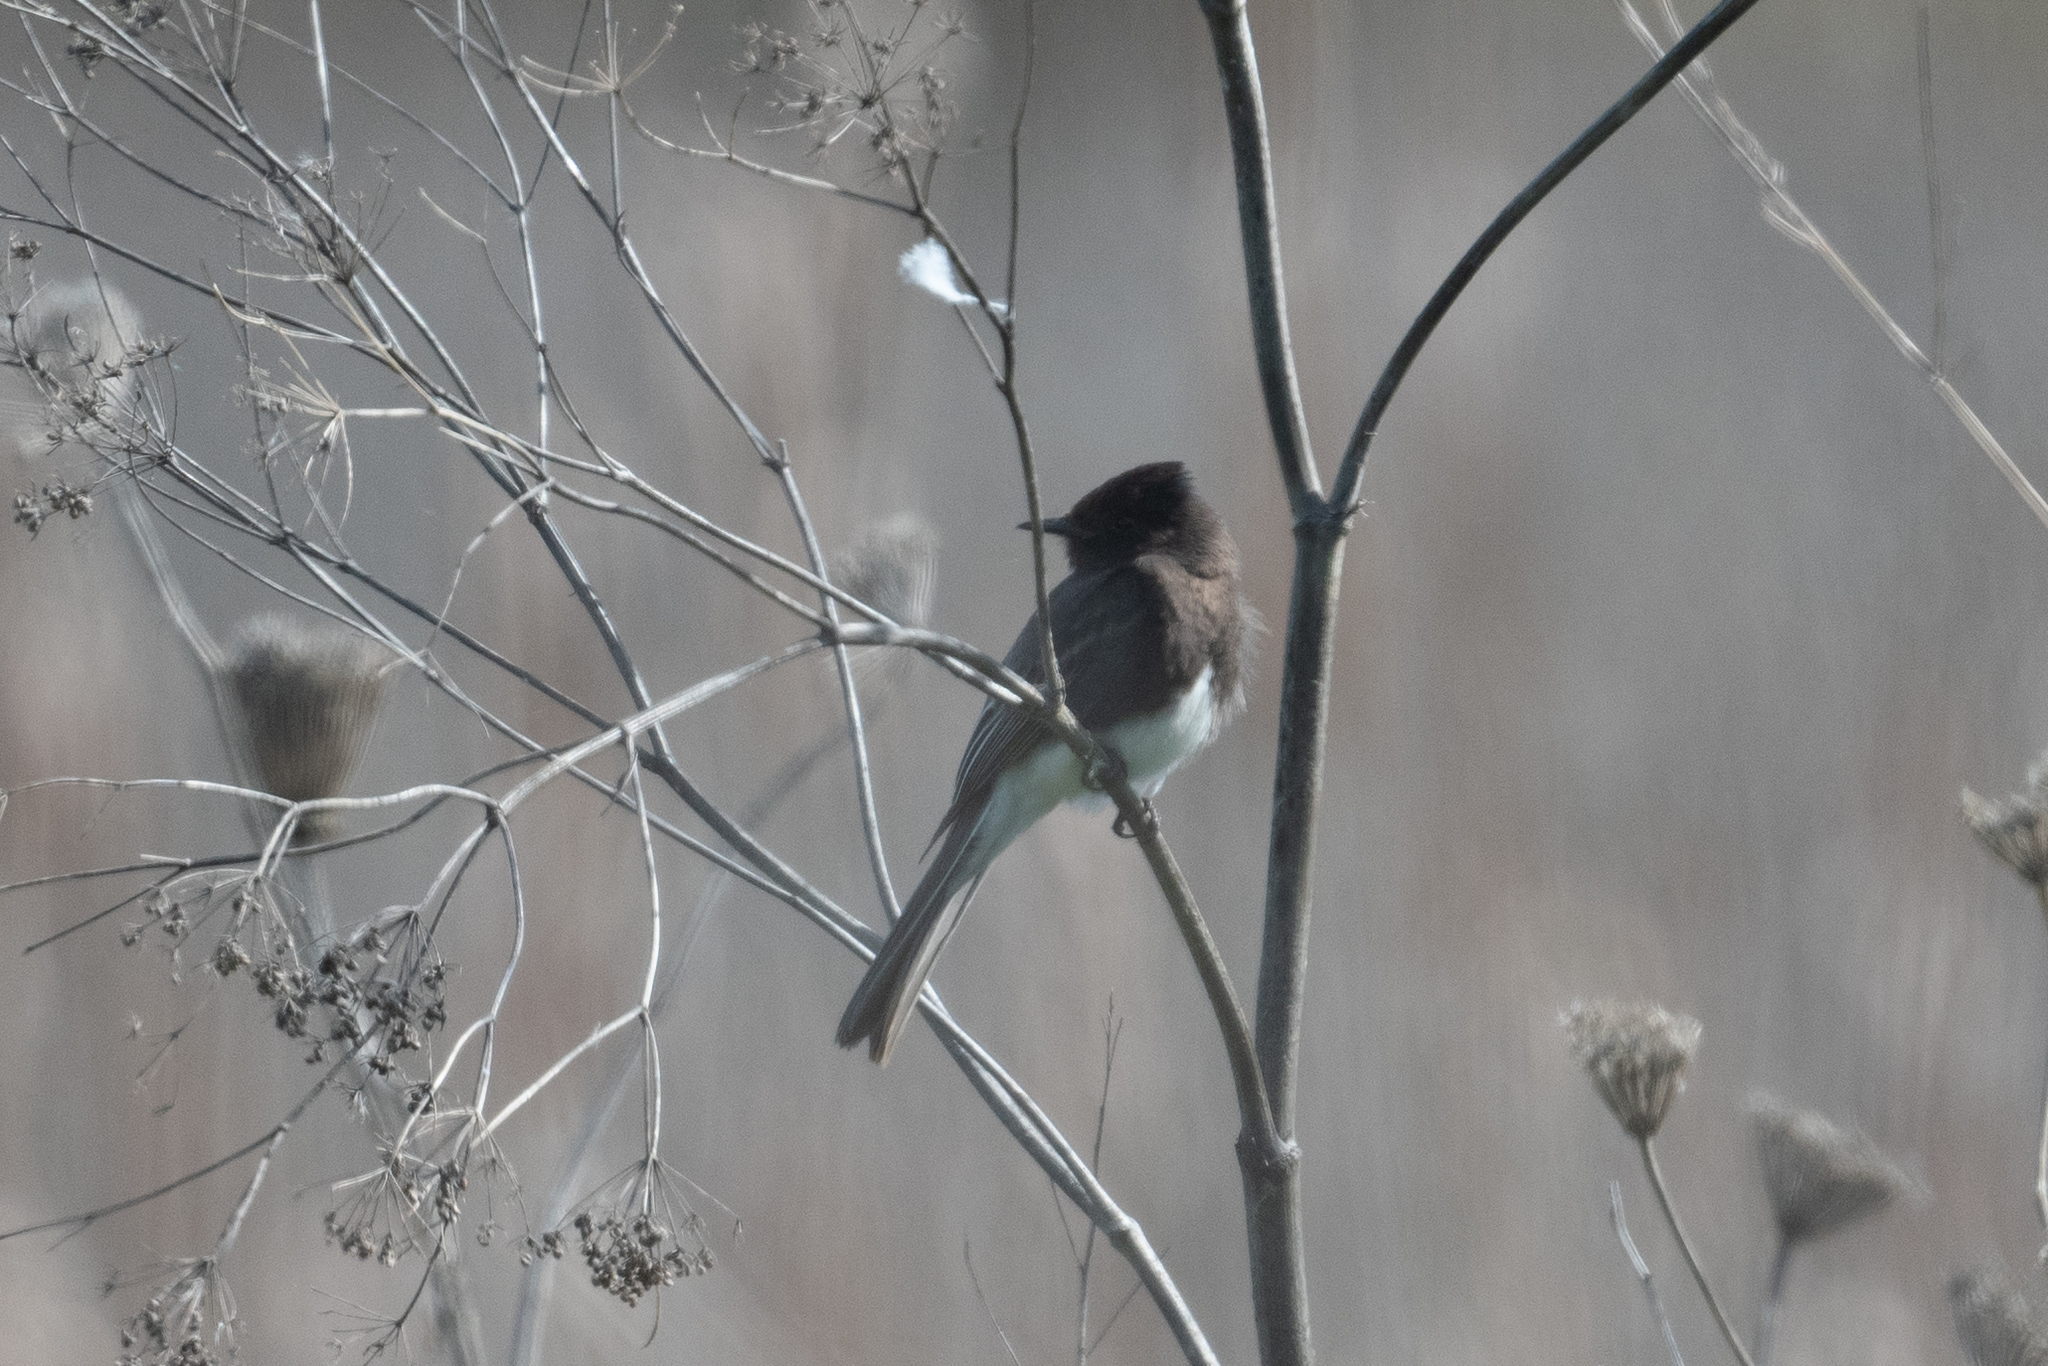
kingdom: Animalia
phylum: Chordata
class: Aves
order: Passeriformes
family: Tyrannidae
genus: Sayornis
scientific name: Sayornis nigricans
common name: Black phoebe
